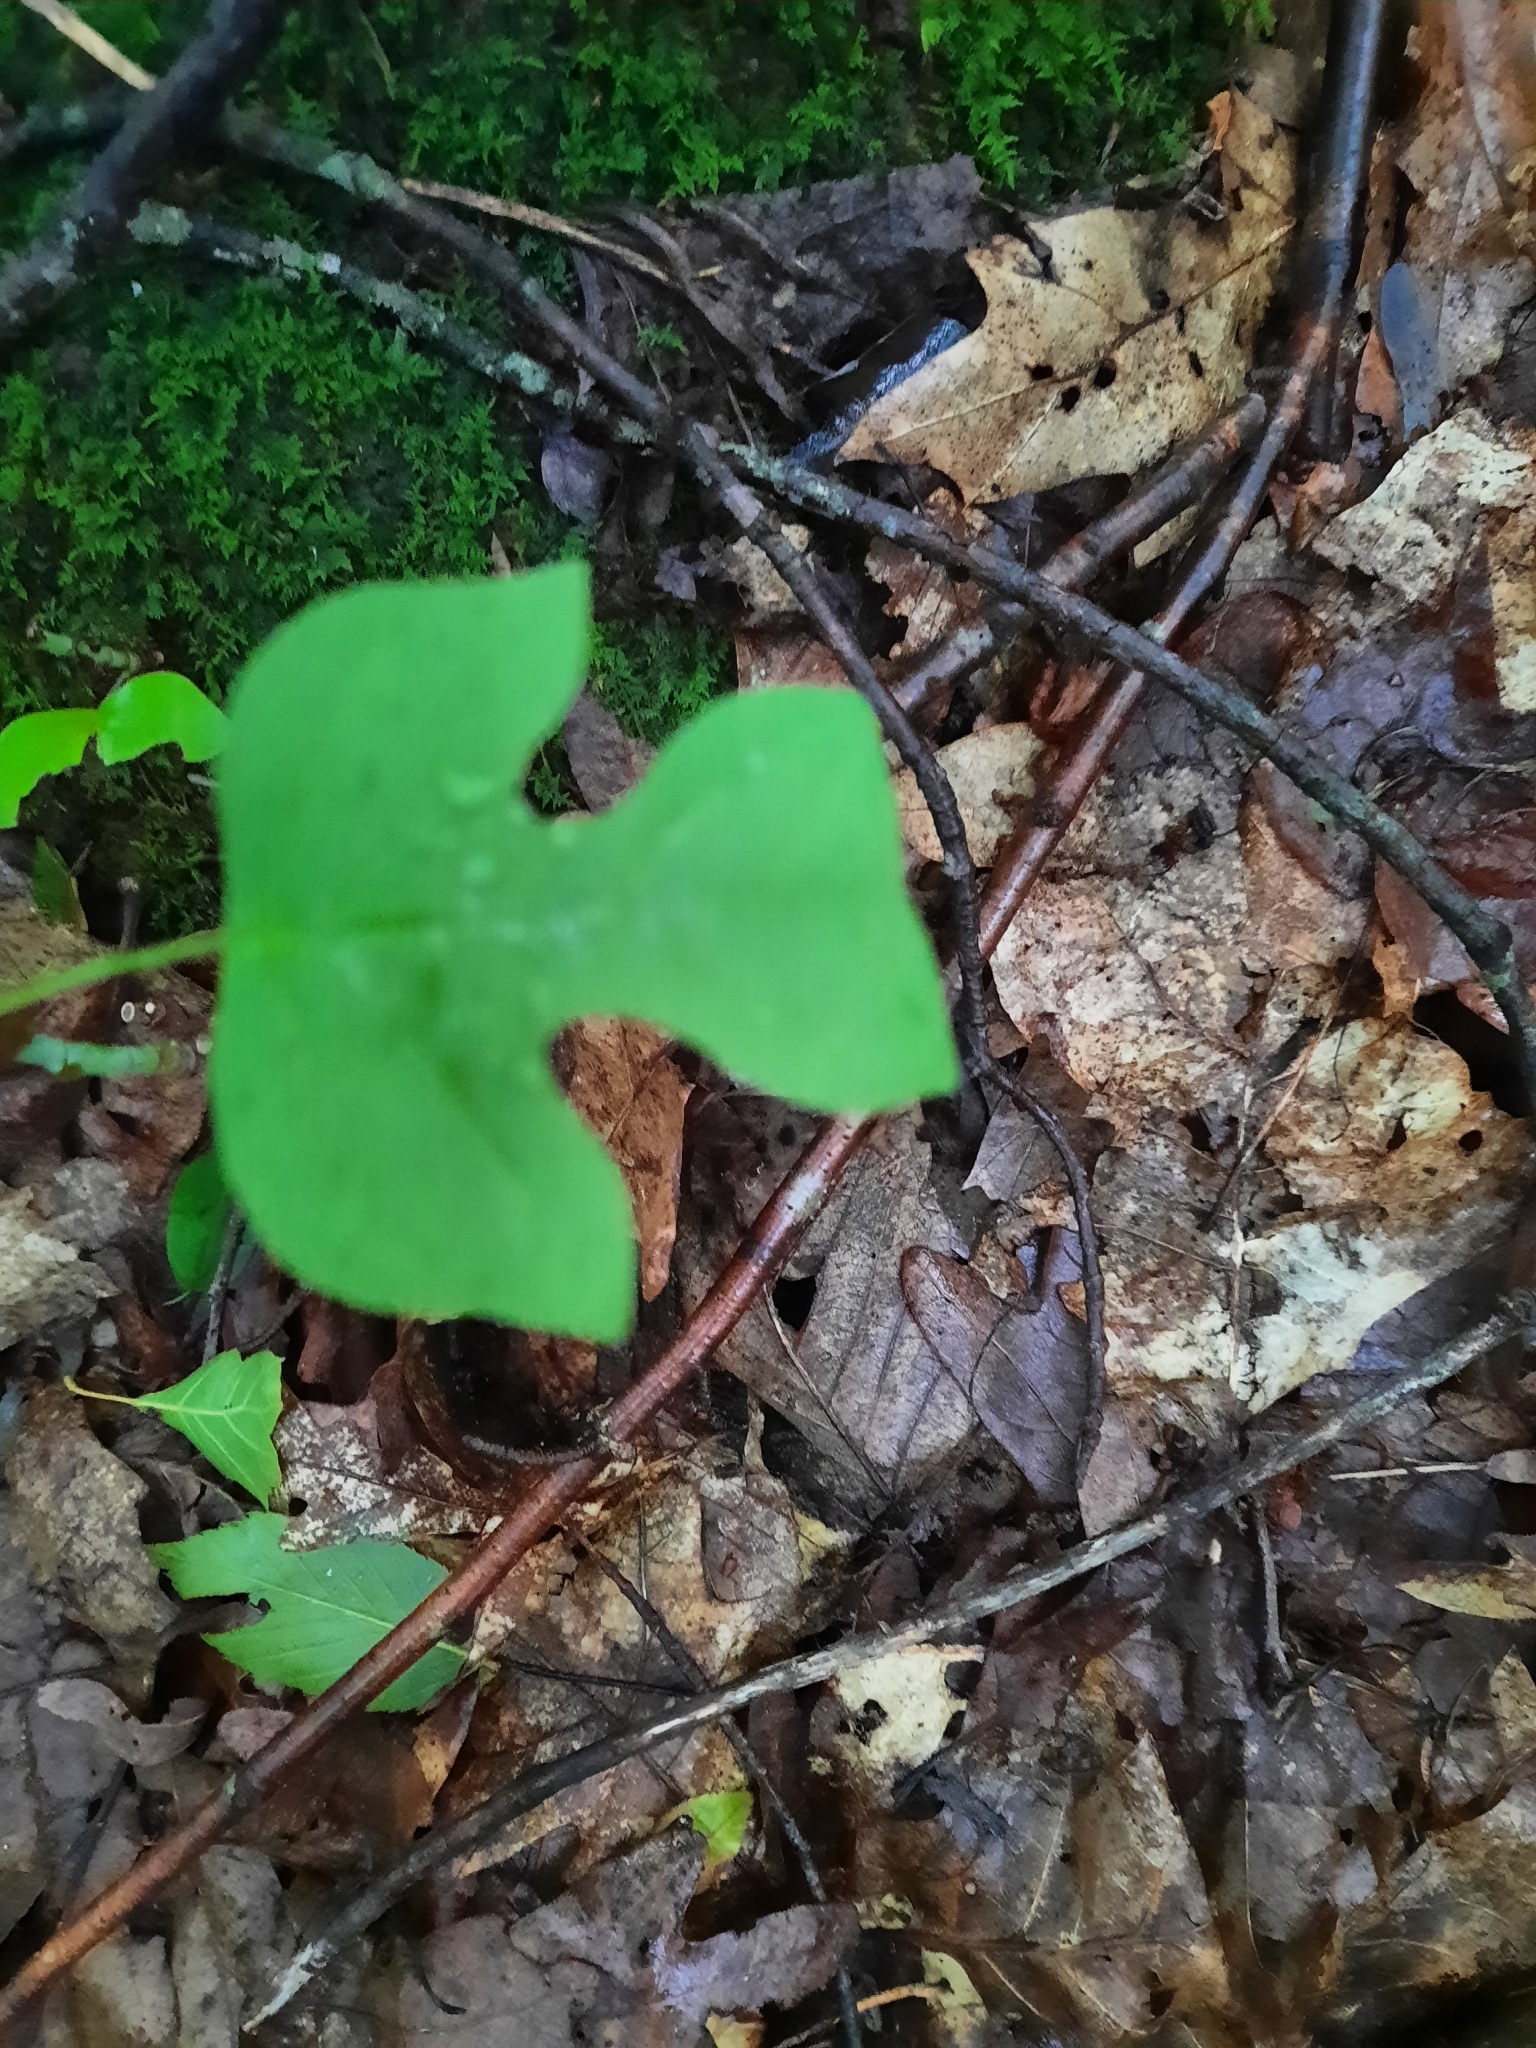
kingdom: Plantae
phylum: Tracheophyta
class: Magnoliopsida
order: Magnoliales
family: Magnoliaceae
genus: Liriodendron
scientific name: Liriodendron tulipifera
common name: Tulip tree
